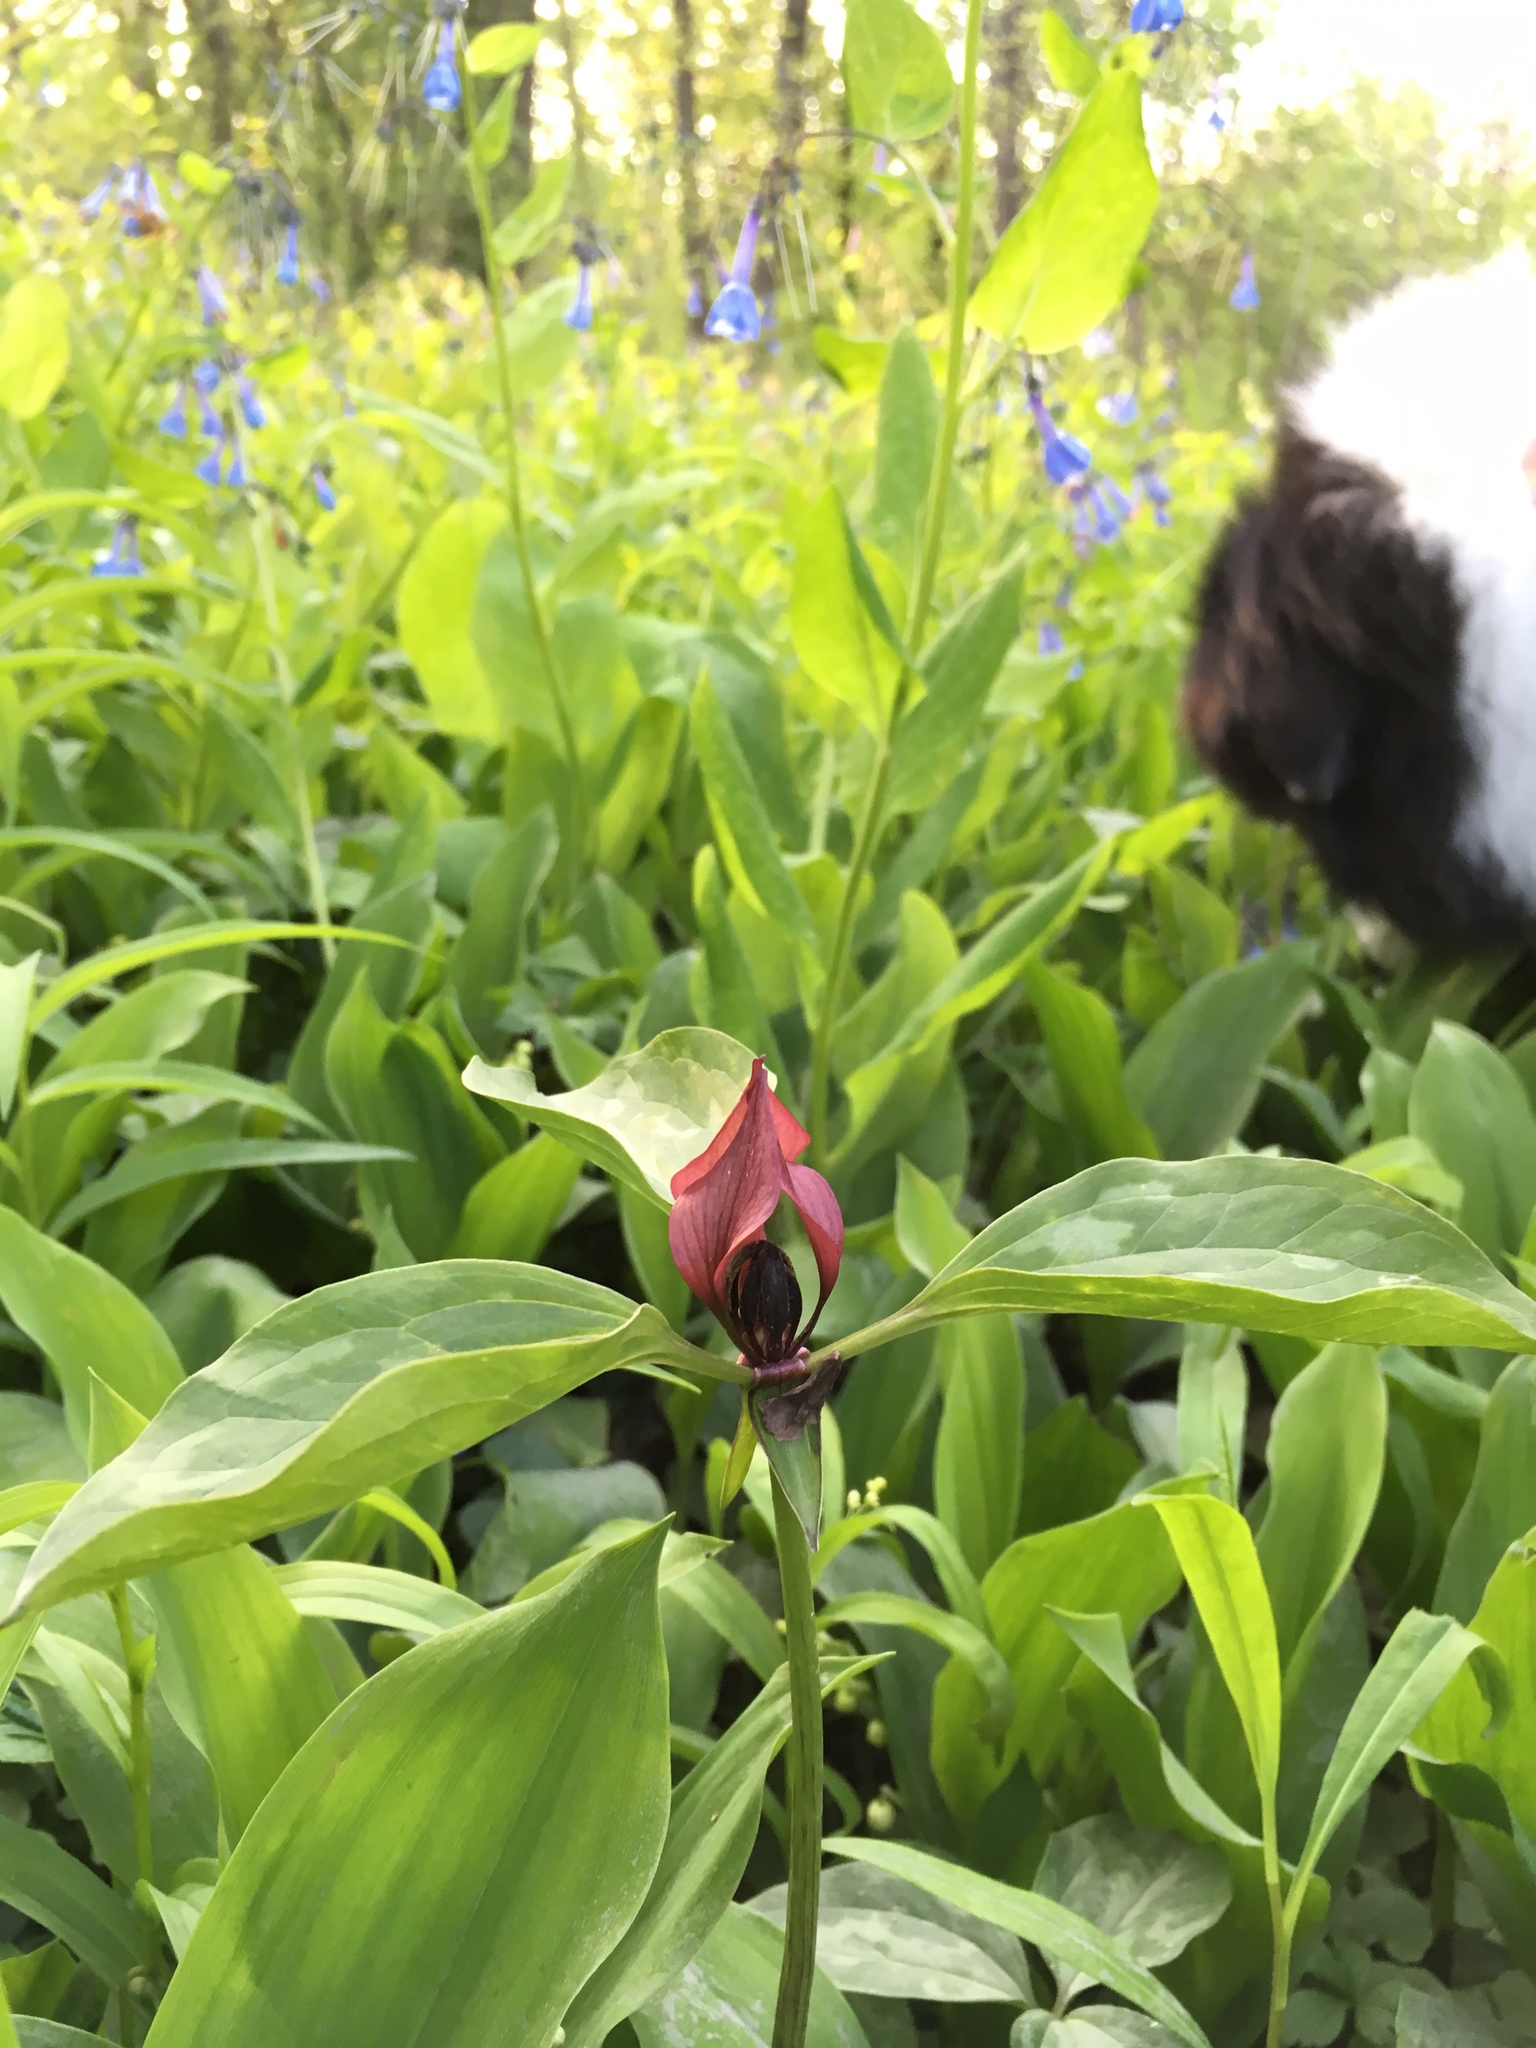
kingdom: Plantae
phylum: Tracheophyta
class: Liliopsida
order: Liliales
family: Melanthiaceae
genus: Trillium
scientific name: Trillium recurvatum
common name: Bloody butcher
